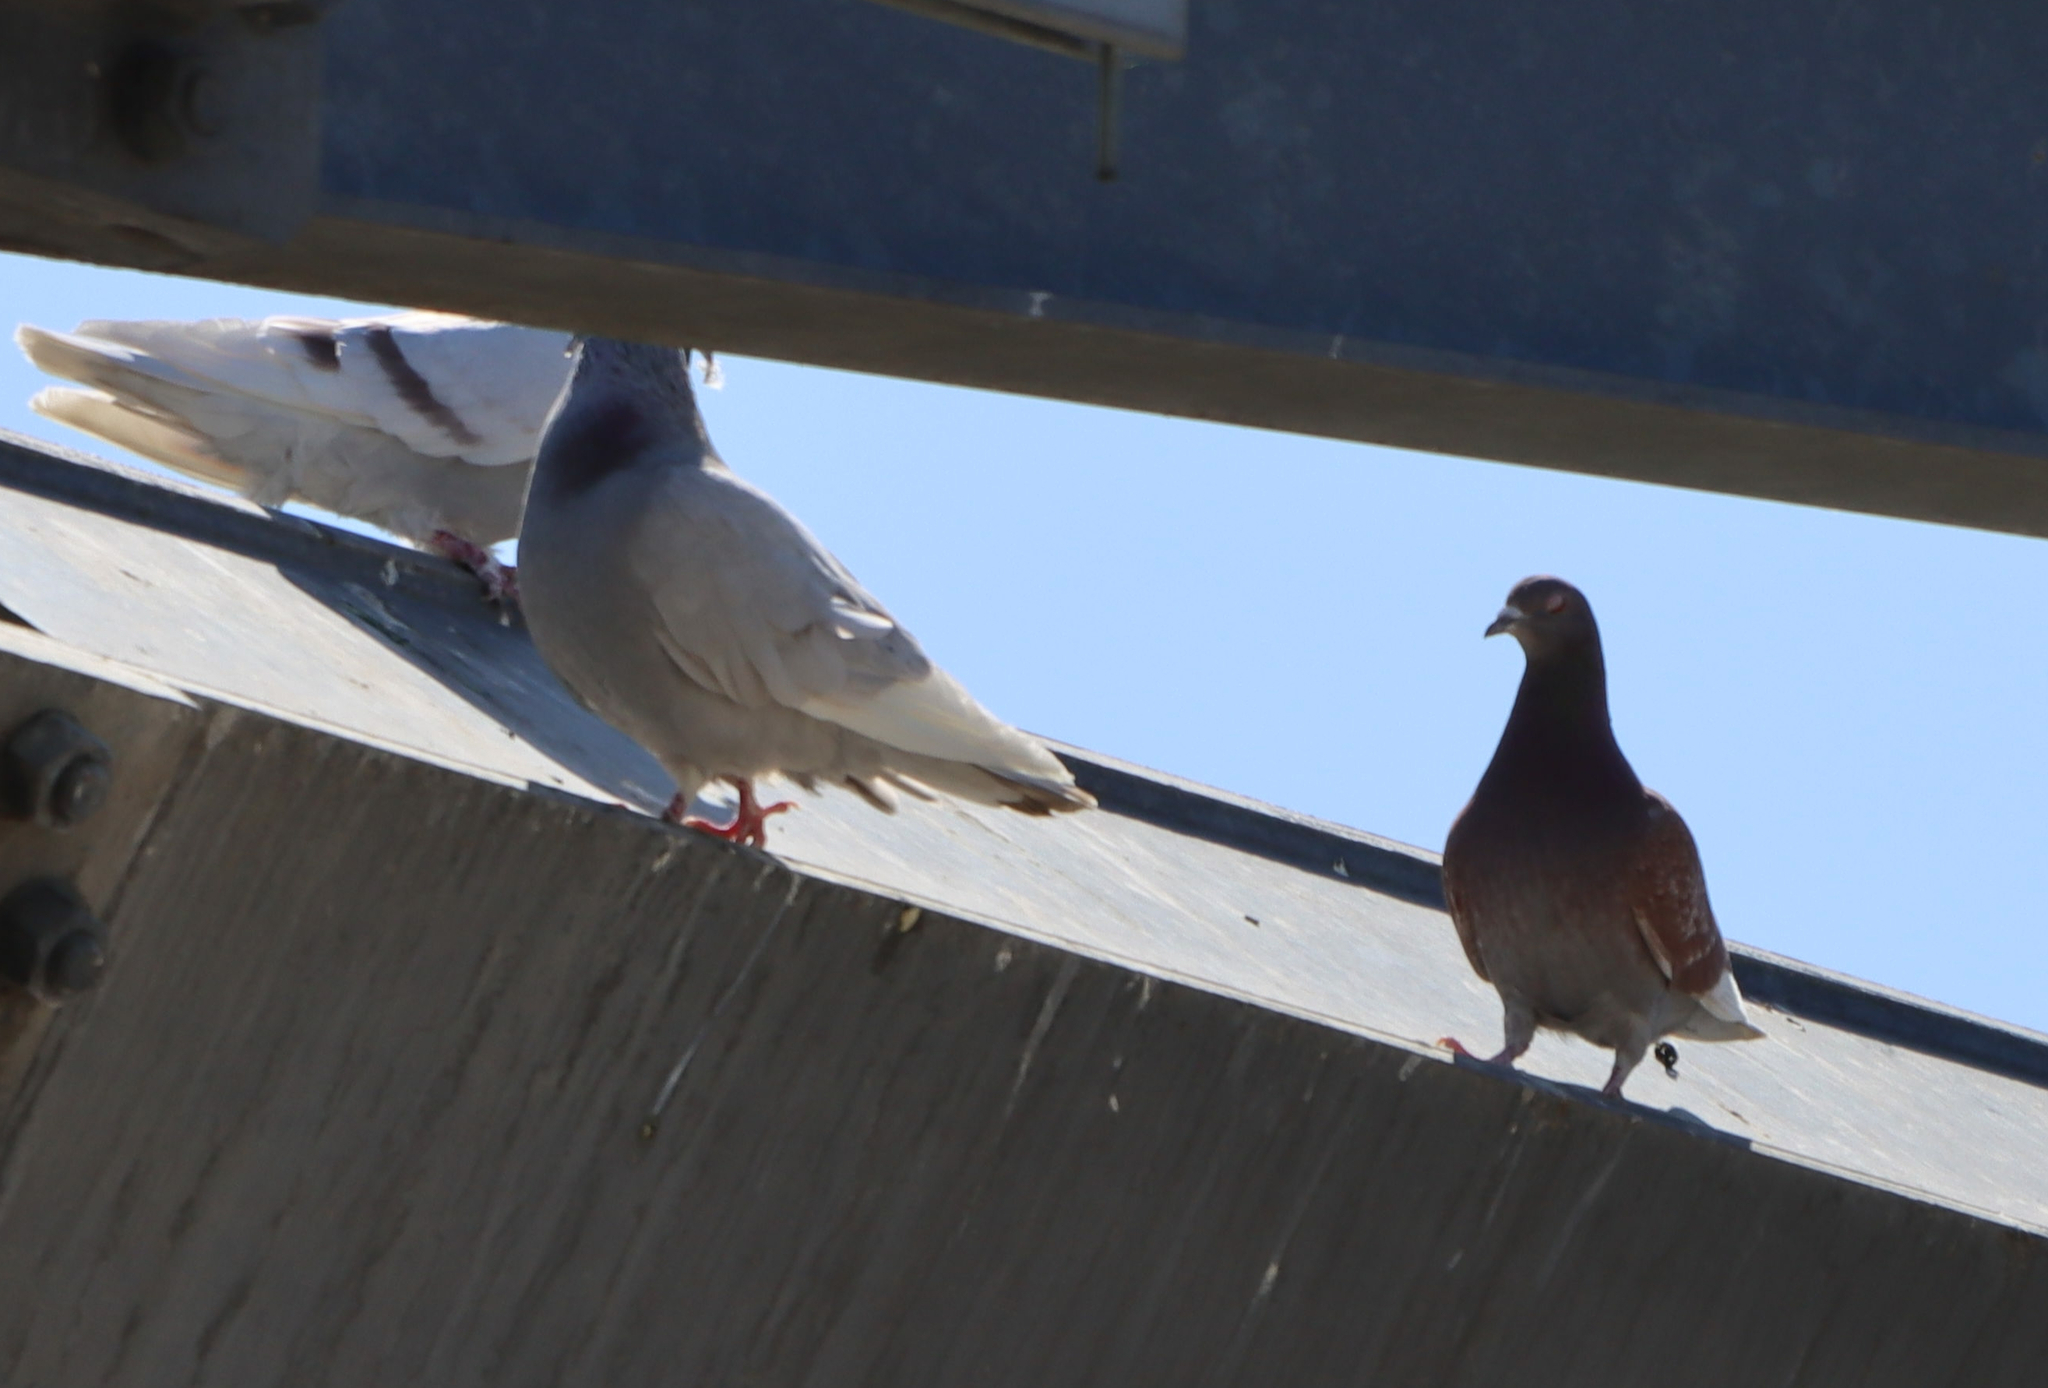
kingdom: Animalia
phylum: Chordata
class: Aves
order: Columbiformes
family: Columbidae
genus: Columba
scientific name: Columba livia
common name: Rock pigeon
